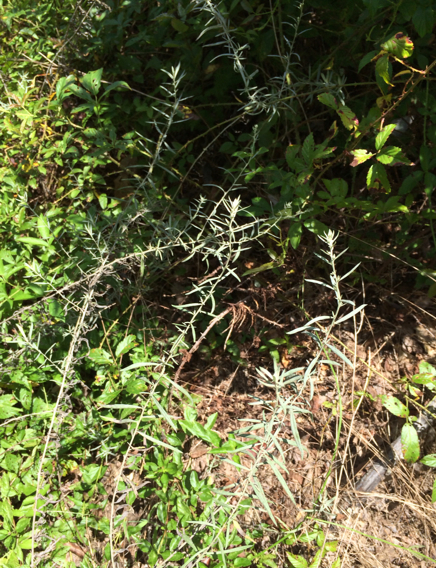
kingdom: Plantae
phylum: Tracheophyta
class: Magnoliopsida
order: Asterales
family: Asteraceae
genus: Artemisia
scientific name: Artemisia ludoviciana
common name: Western mugwort
